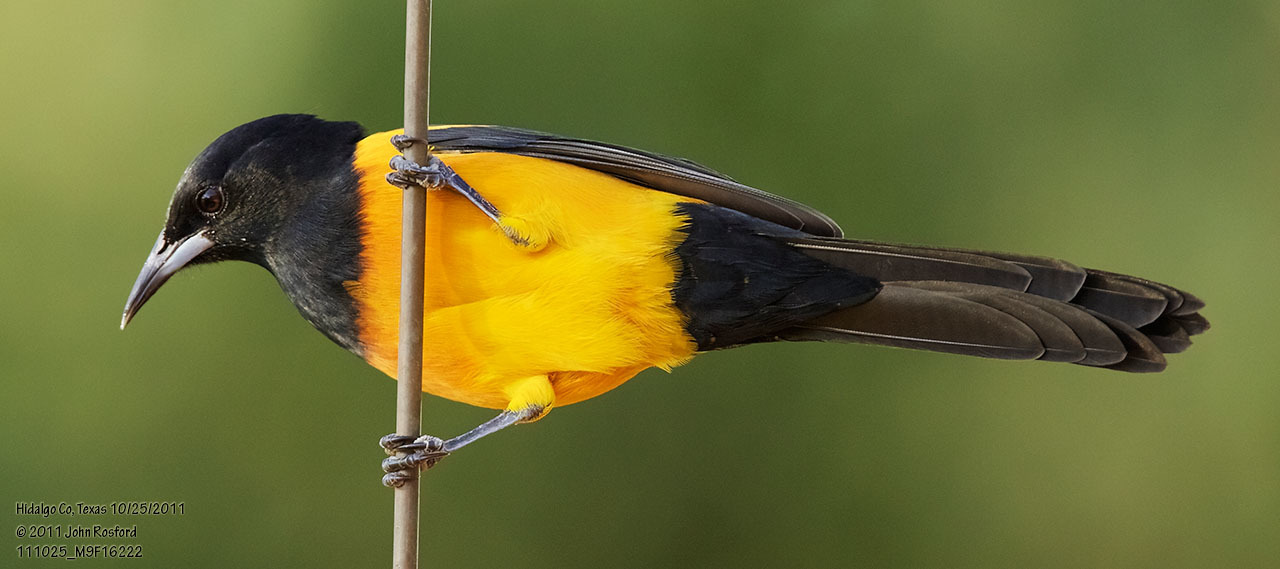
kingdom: Animalia
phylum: Chordata
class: Aves
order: Passeriformes
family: Icteridae
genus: Icterus
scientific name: Icterus wagleri
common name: Black-vented oriole
